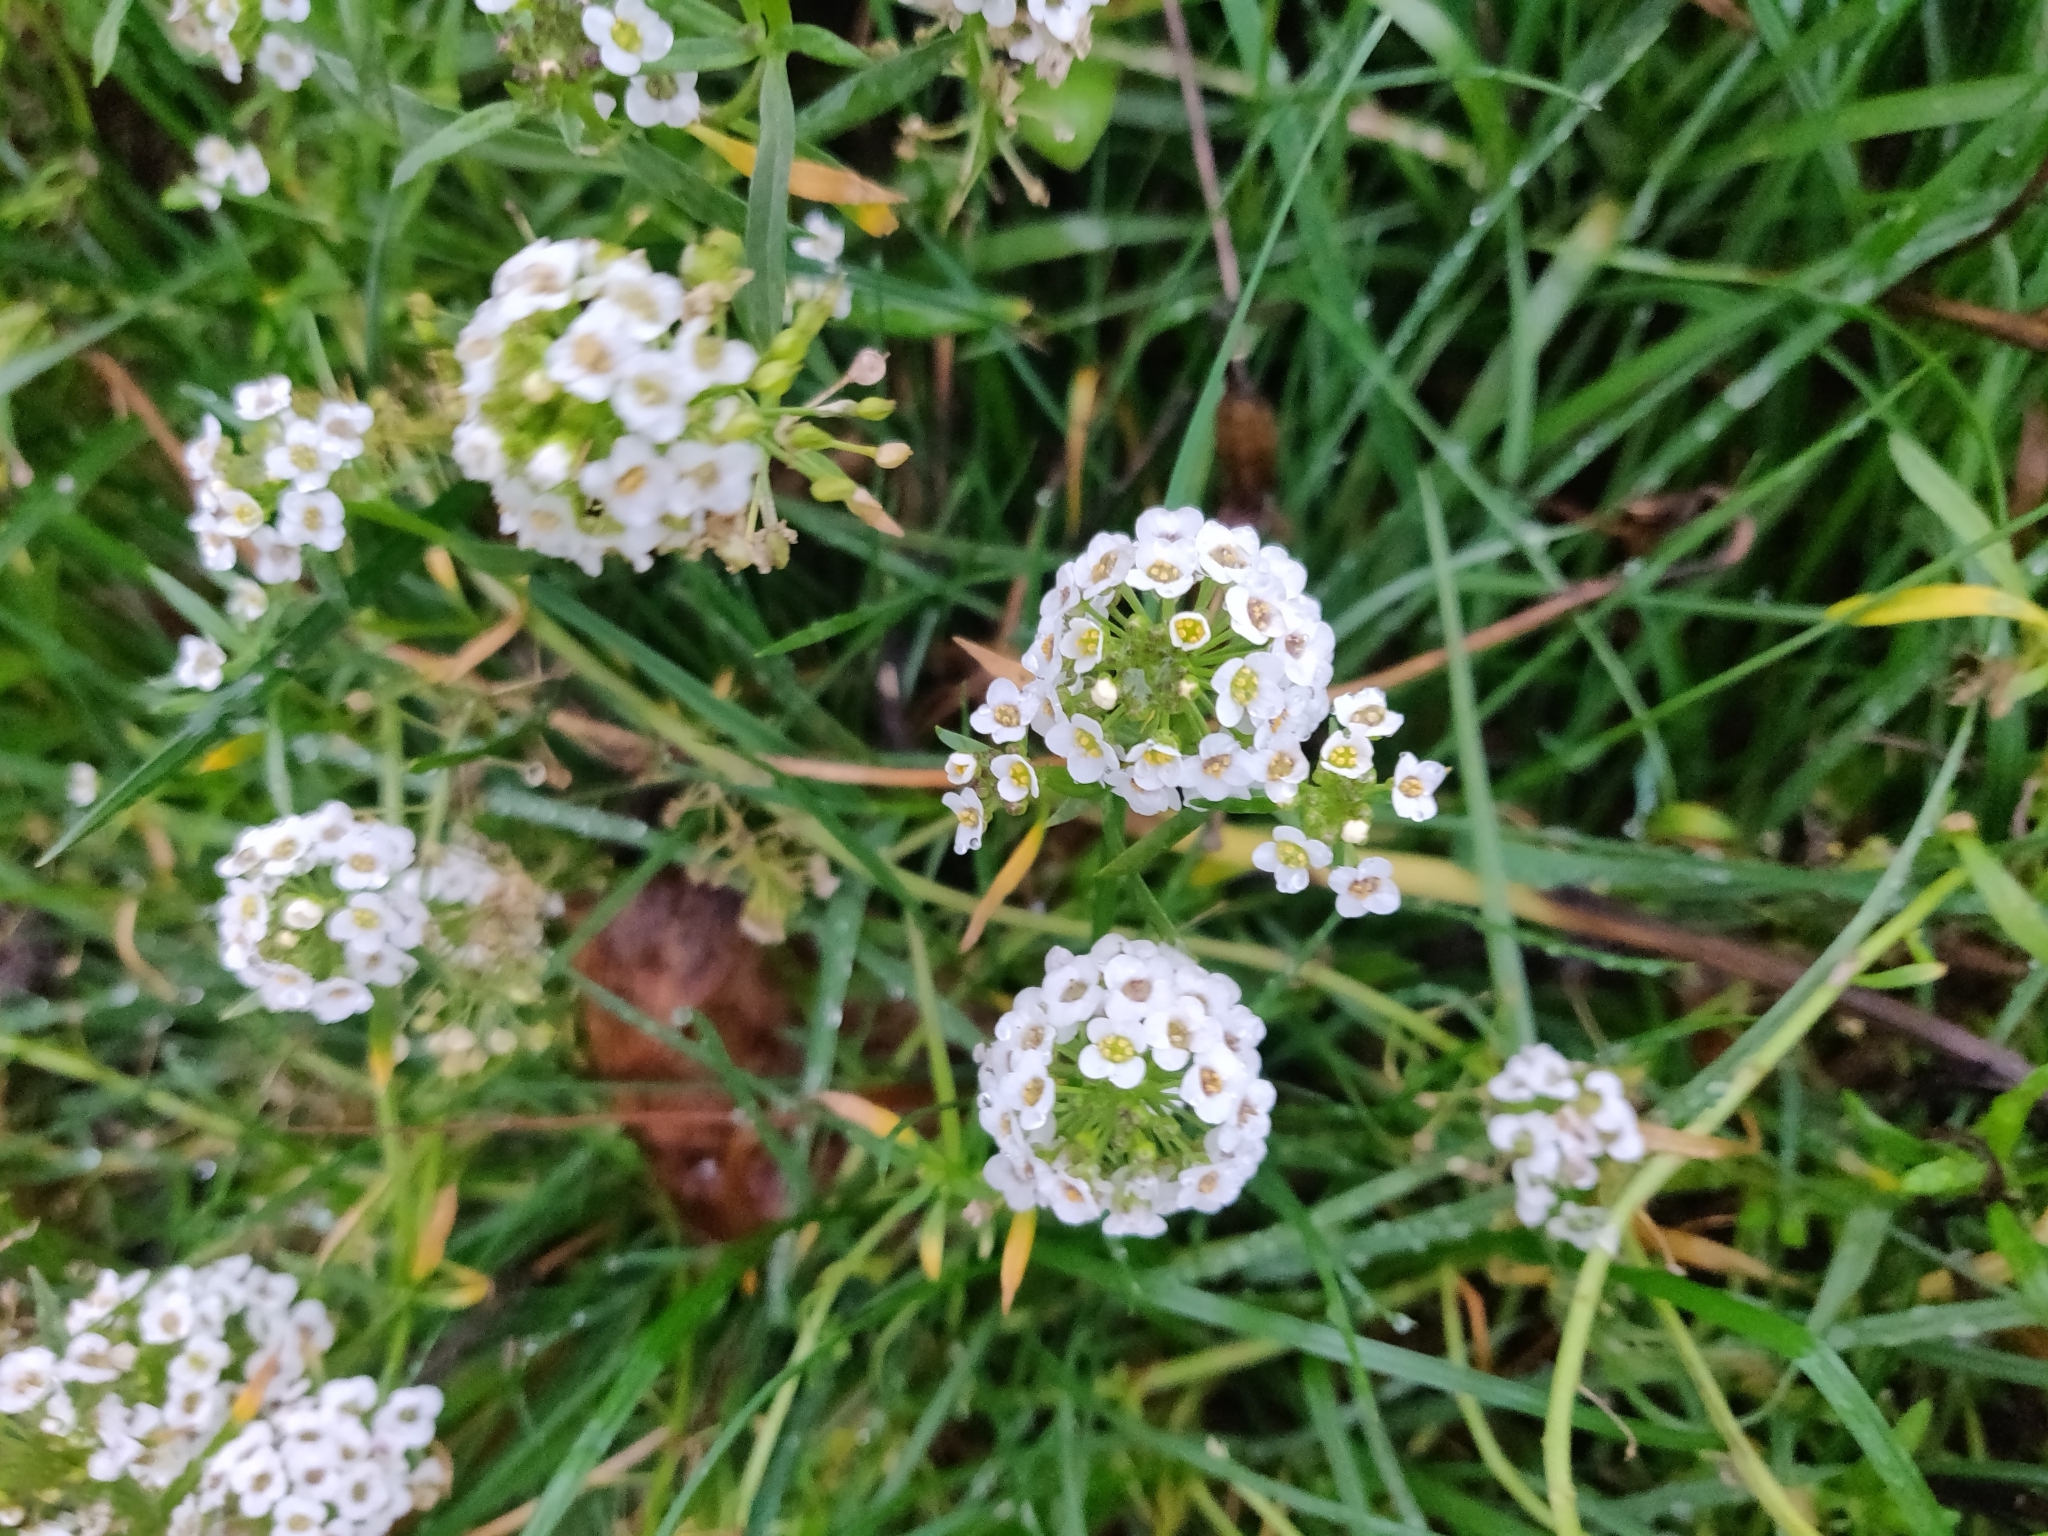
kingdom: Plantae
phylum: Tracheophyta
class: Magnoliopsida
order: Brassicales
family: Brassicaceae
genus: Lobularia
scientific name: Lobularia maritima
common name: Sweet alison
